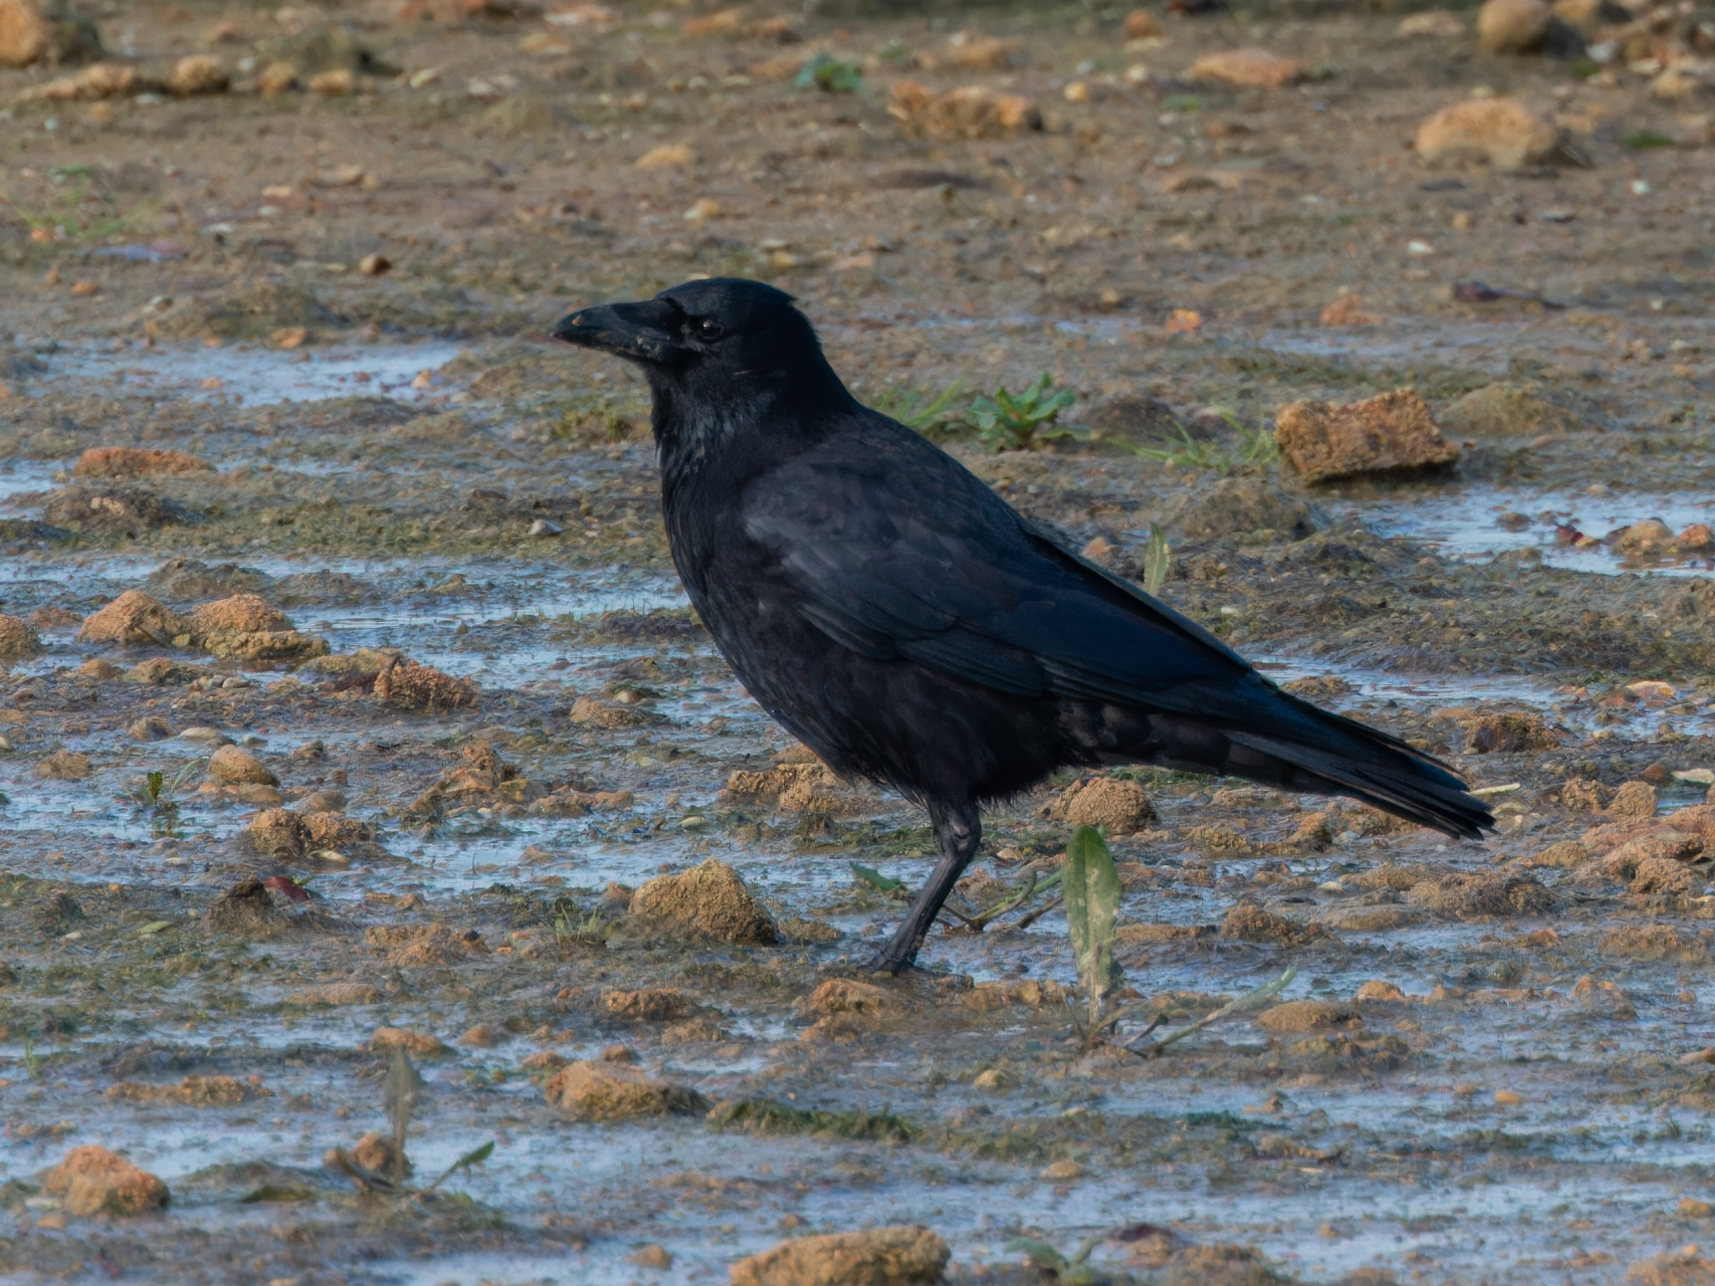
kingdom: Animalia
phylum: Chordata
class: Aves
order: Passeriformes
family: Corvidae
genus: Corvus
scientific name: Corvus corone
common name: Carrion crow
